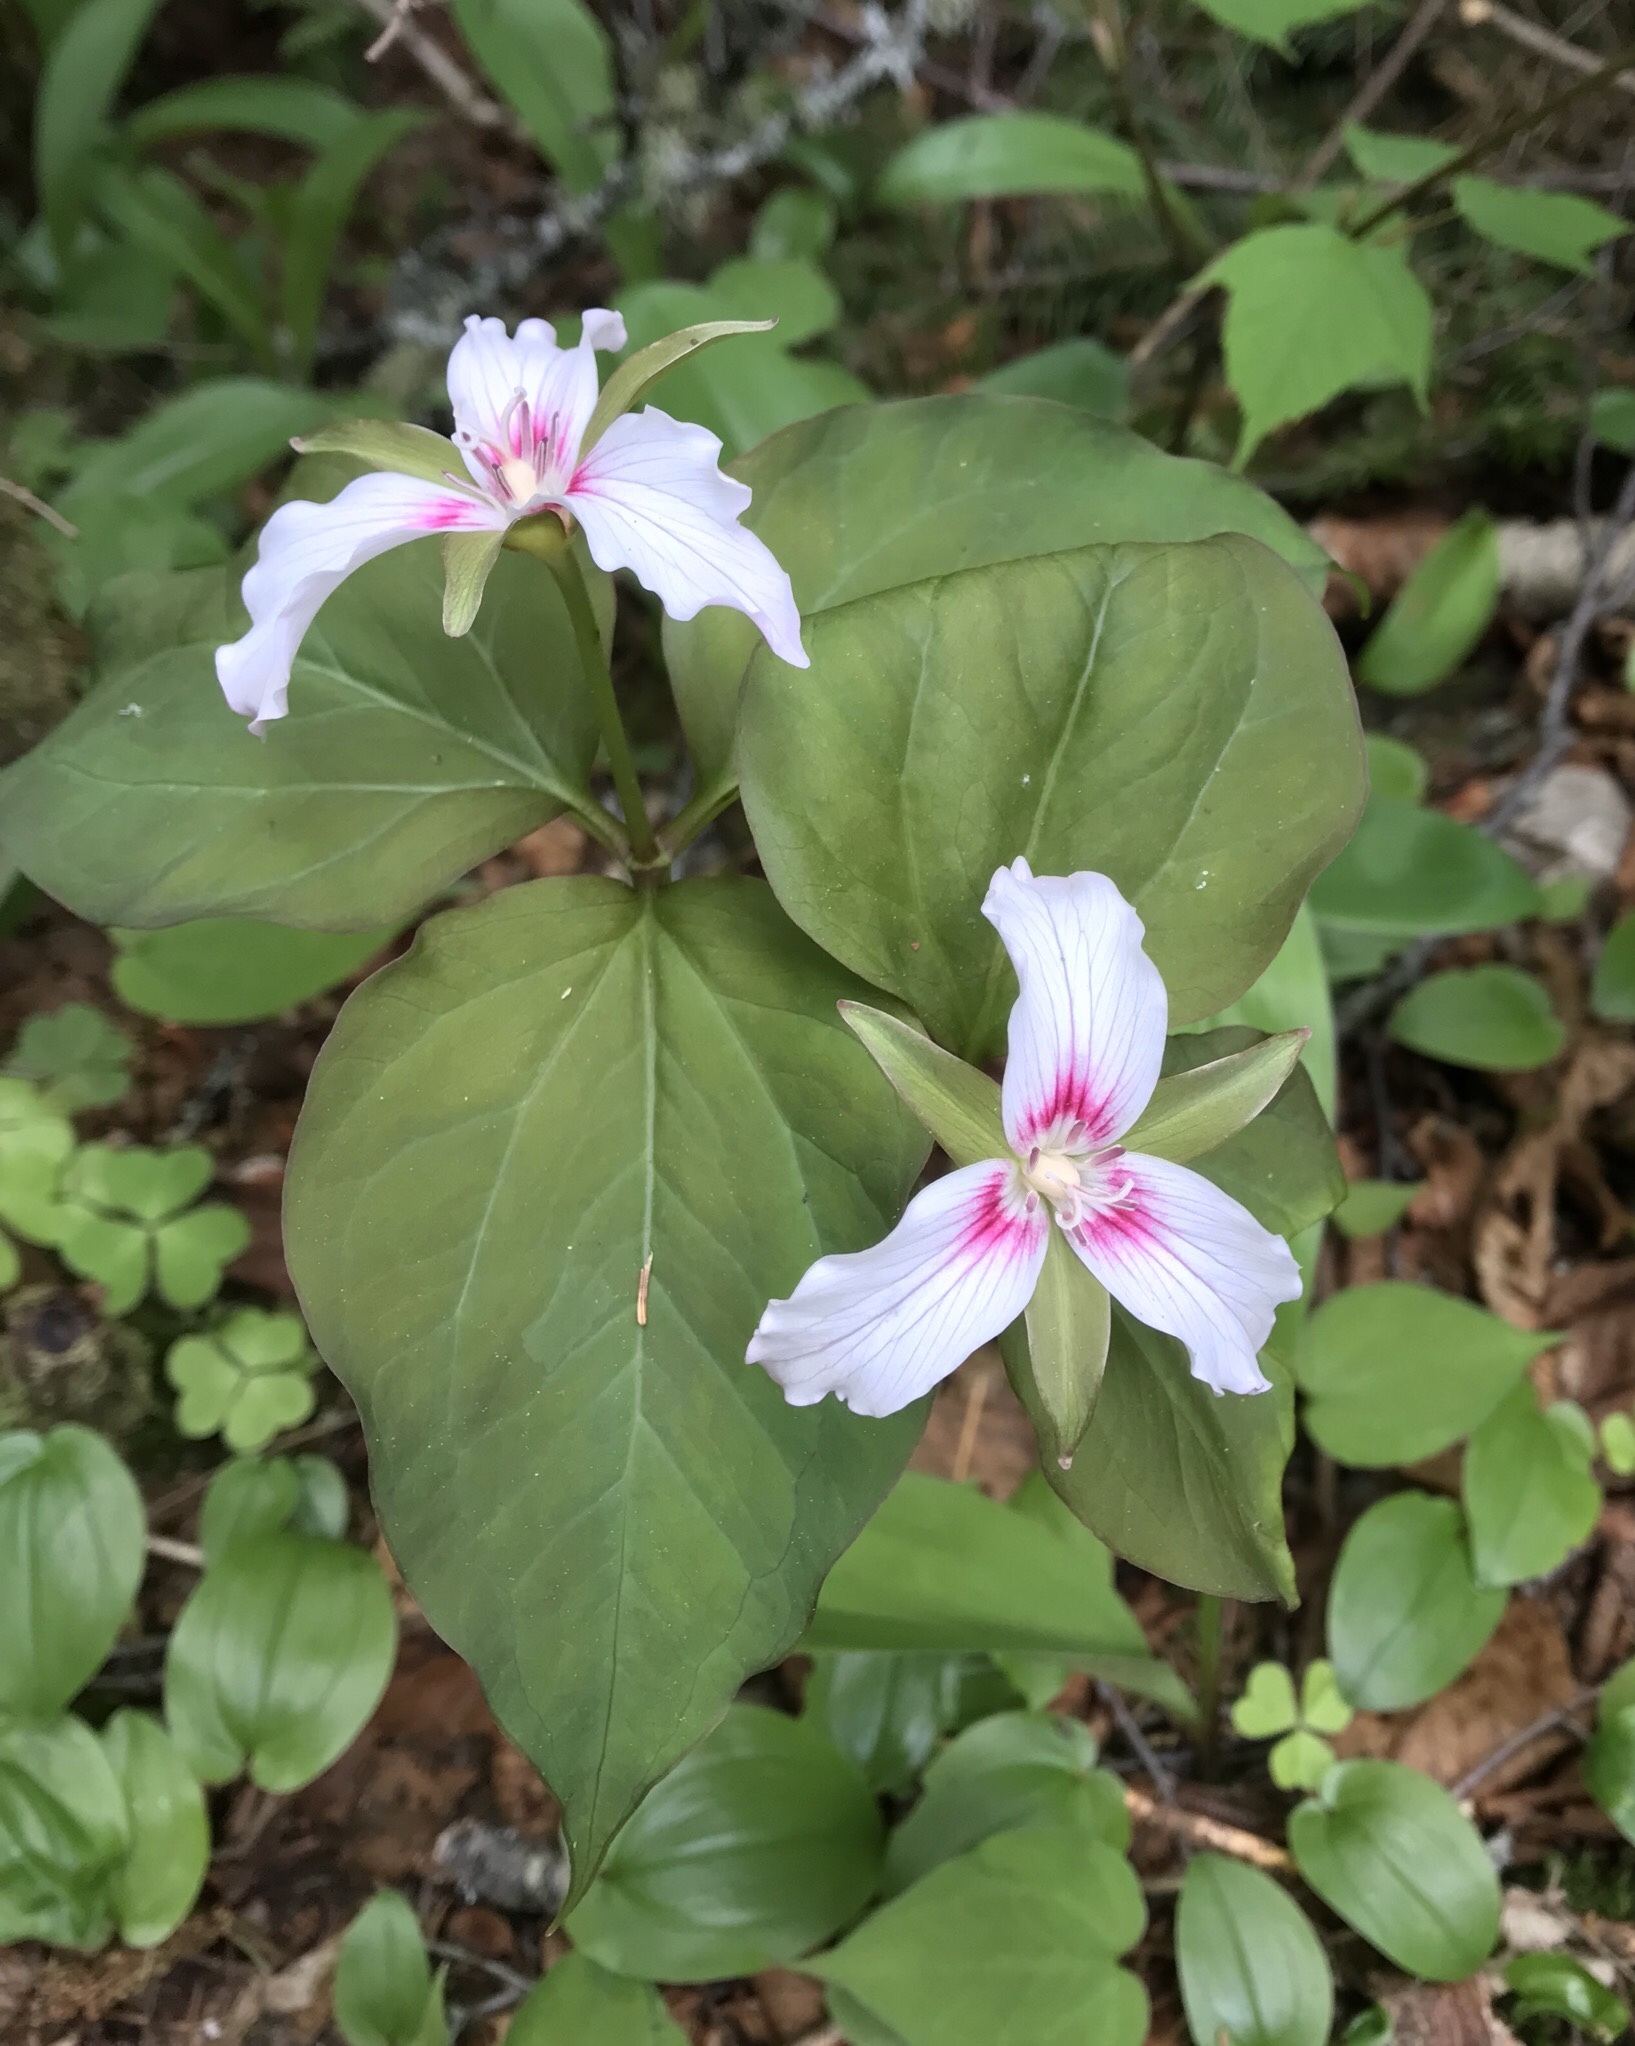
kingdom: Plantae
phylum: Tracheophyta
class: Liliopsida
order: Liliales
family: Melanthiaceae
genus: Trillium
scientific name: Trillium undulatum
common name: Paint trillium
